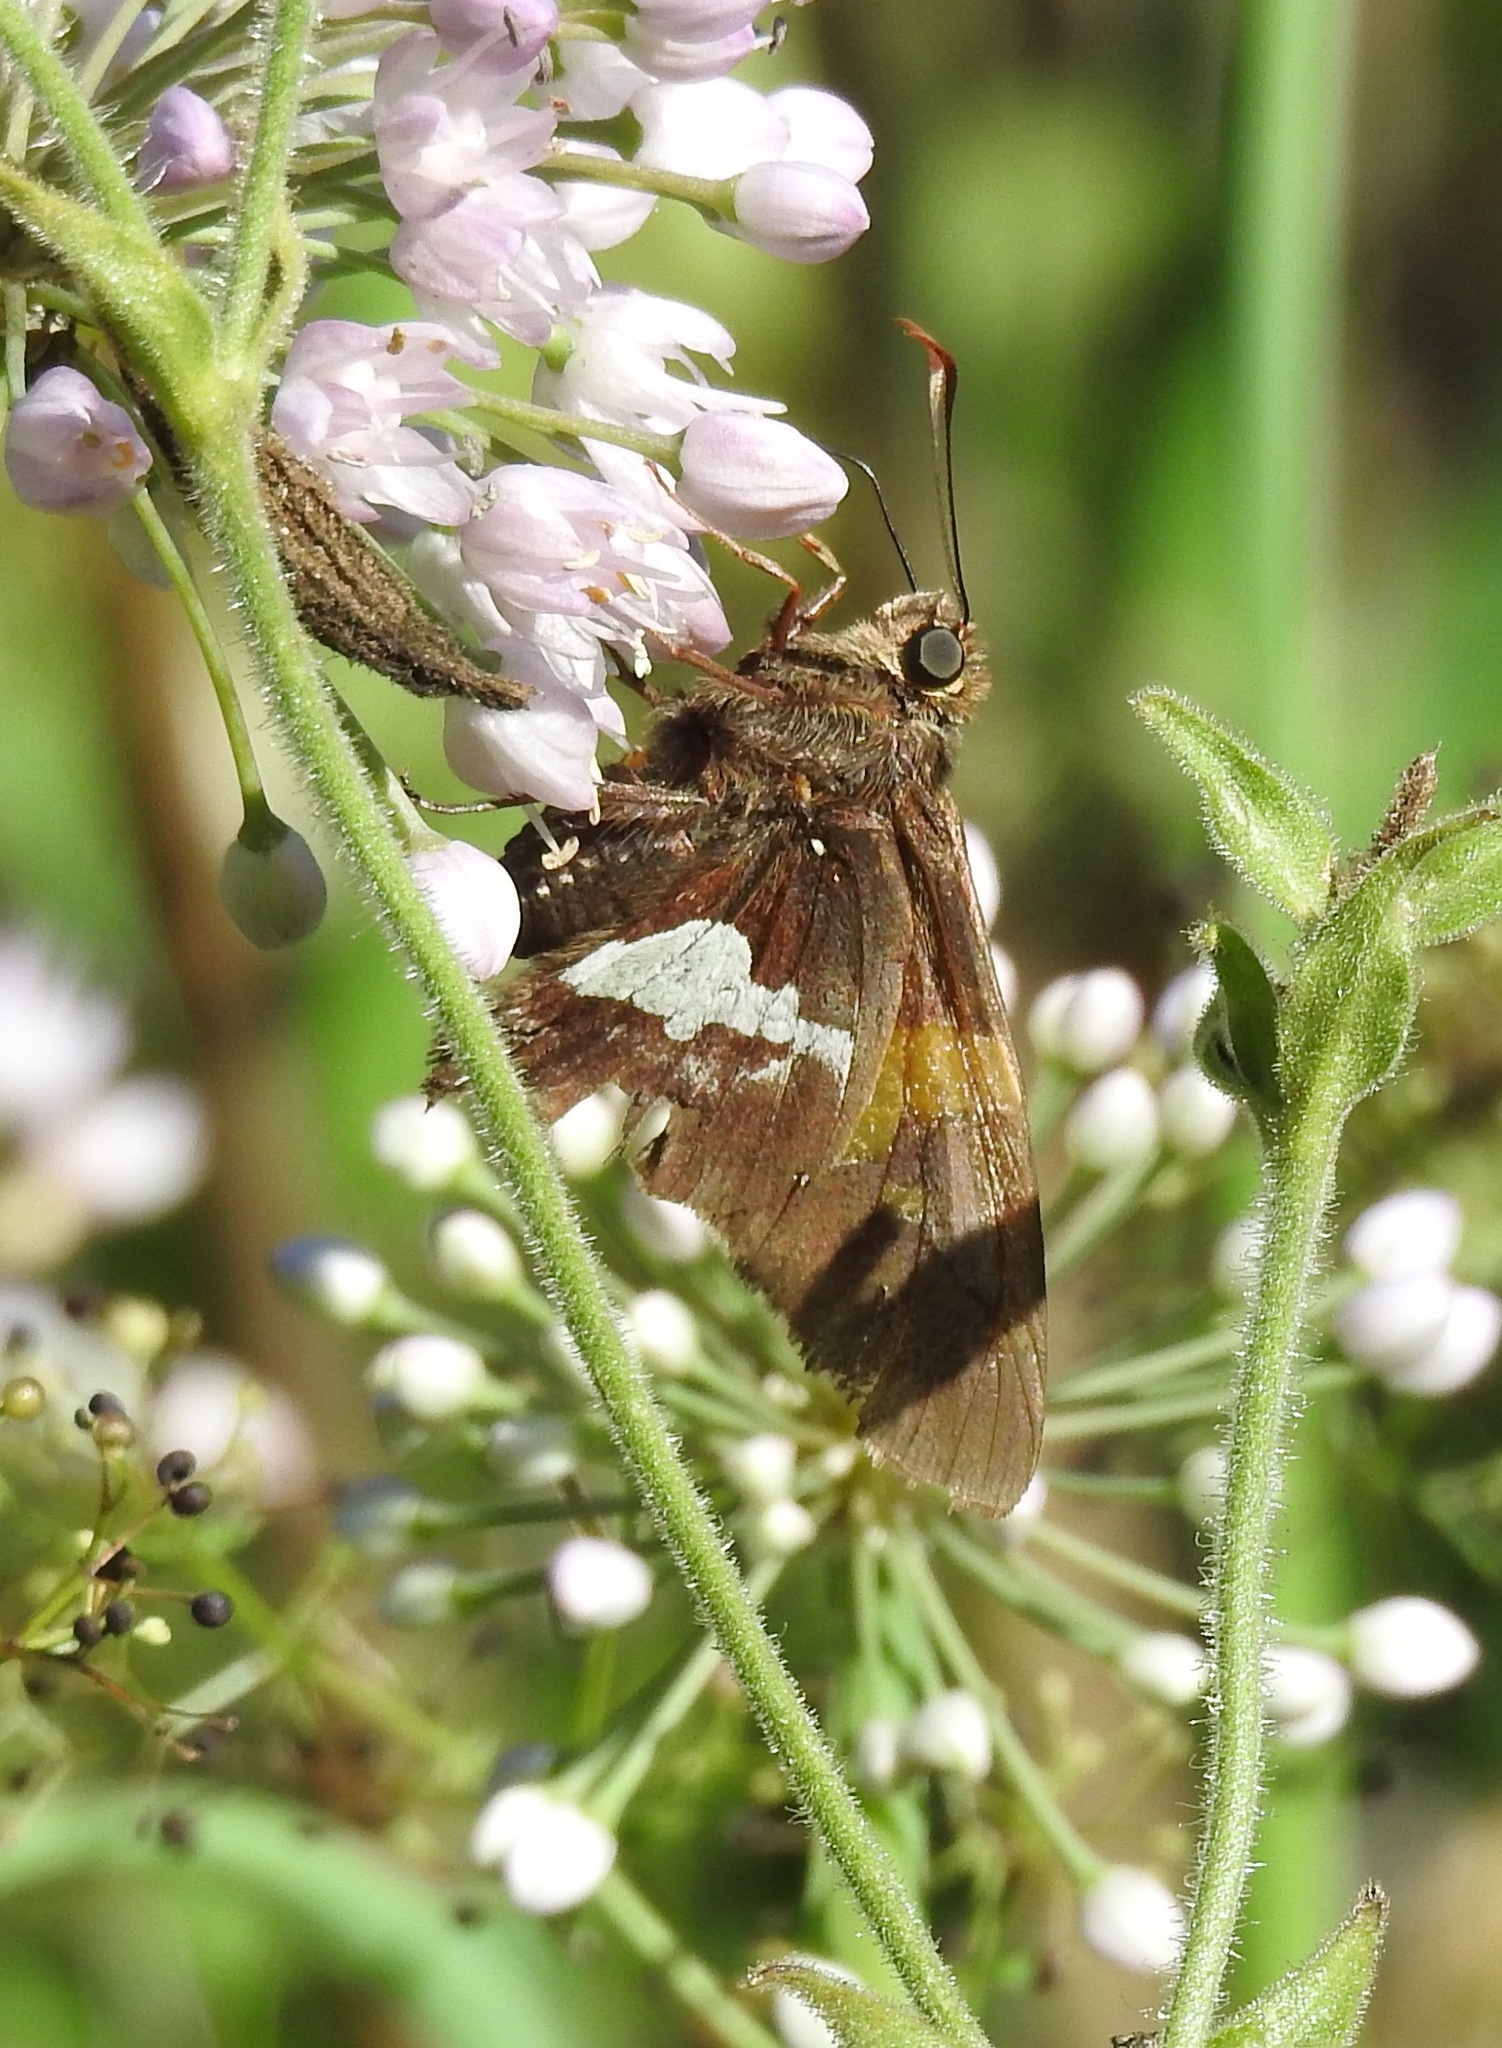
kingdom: Animalia
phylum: Arthropoda
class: Insecta
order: Lepidoptera
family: Hesperiidae
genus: Epargyreus
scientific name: Epargyreus clarus
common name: Silver-spotted skipper
